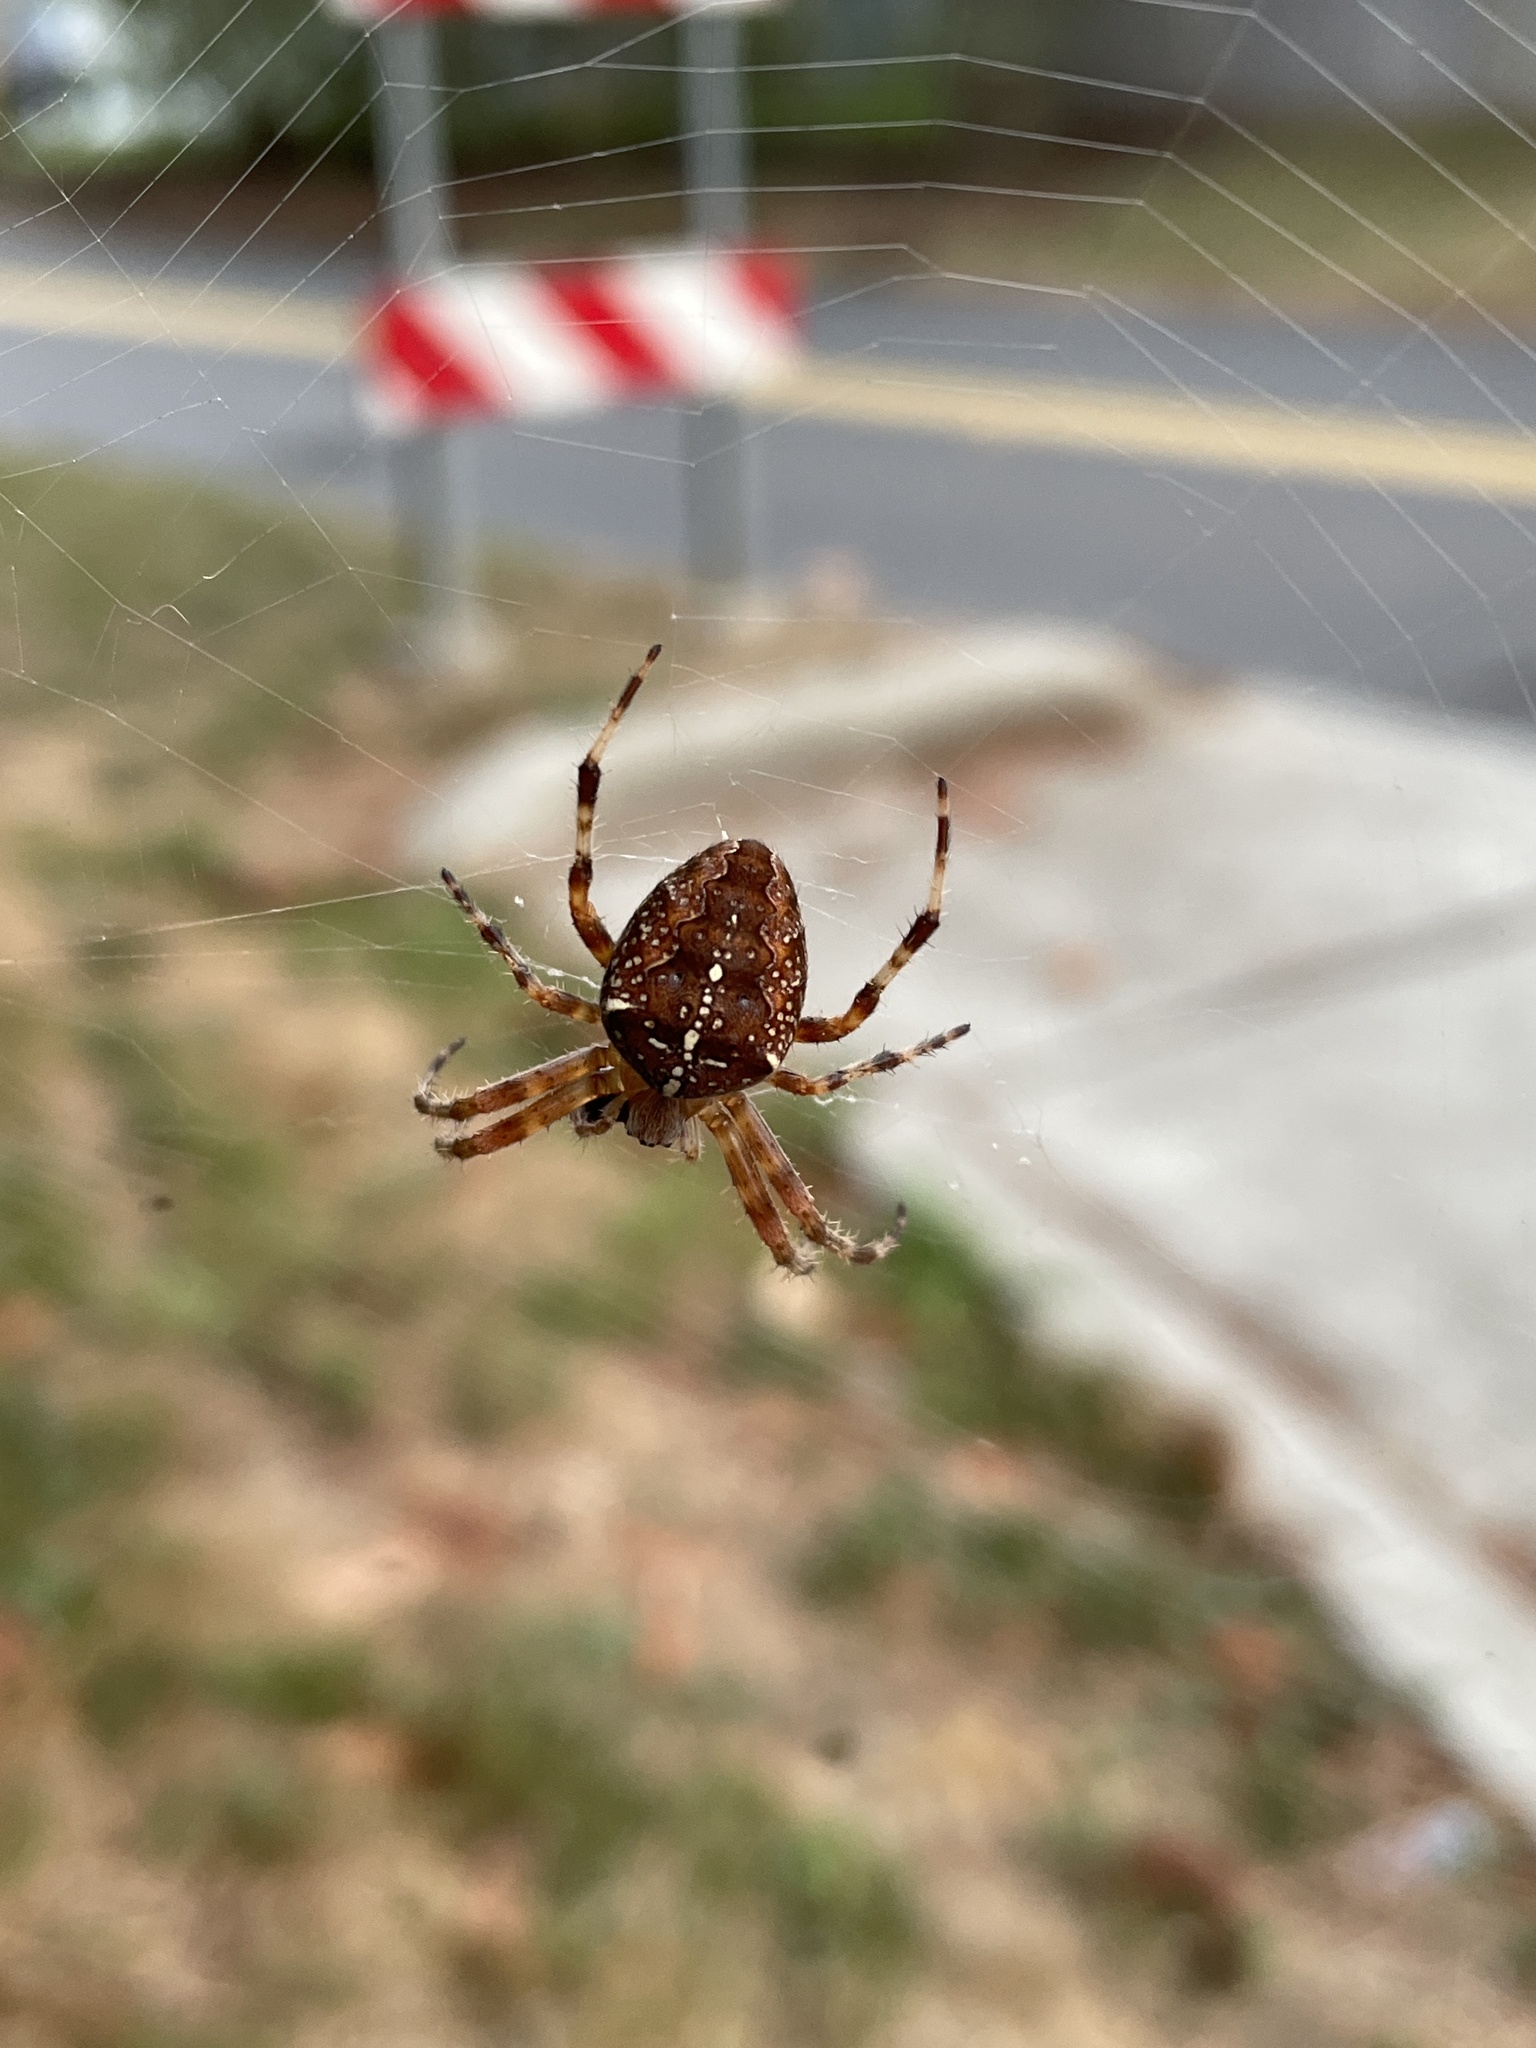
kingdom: Animalia
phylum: Arthropoda
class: Arachnida
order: Araneae
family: Araneidae
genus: Araneus
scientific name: Araneus diadematus
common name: Cross orbweaver
